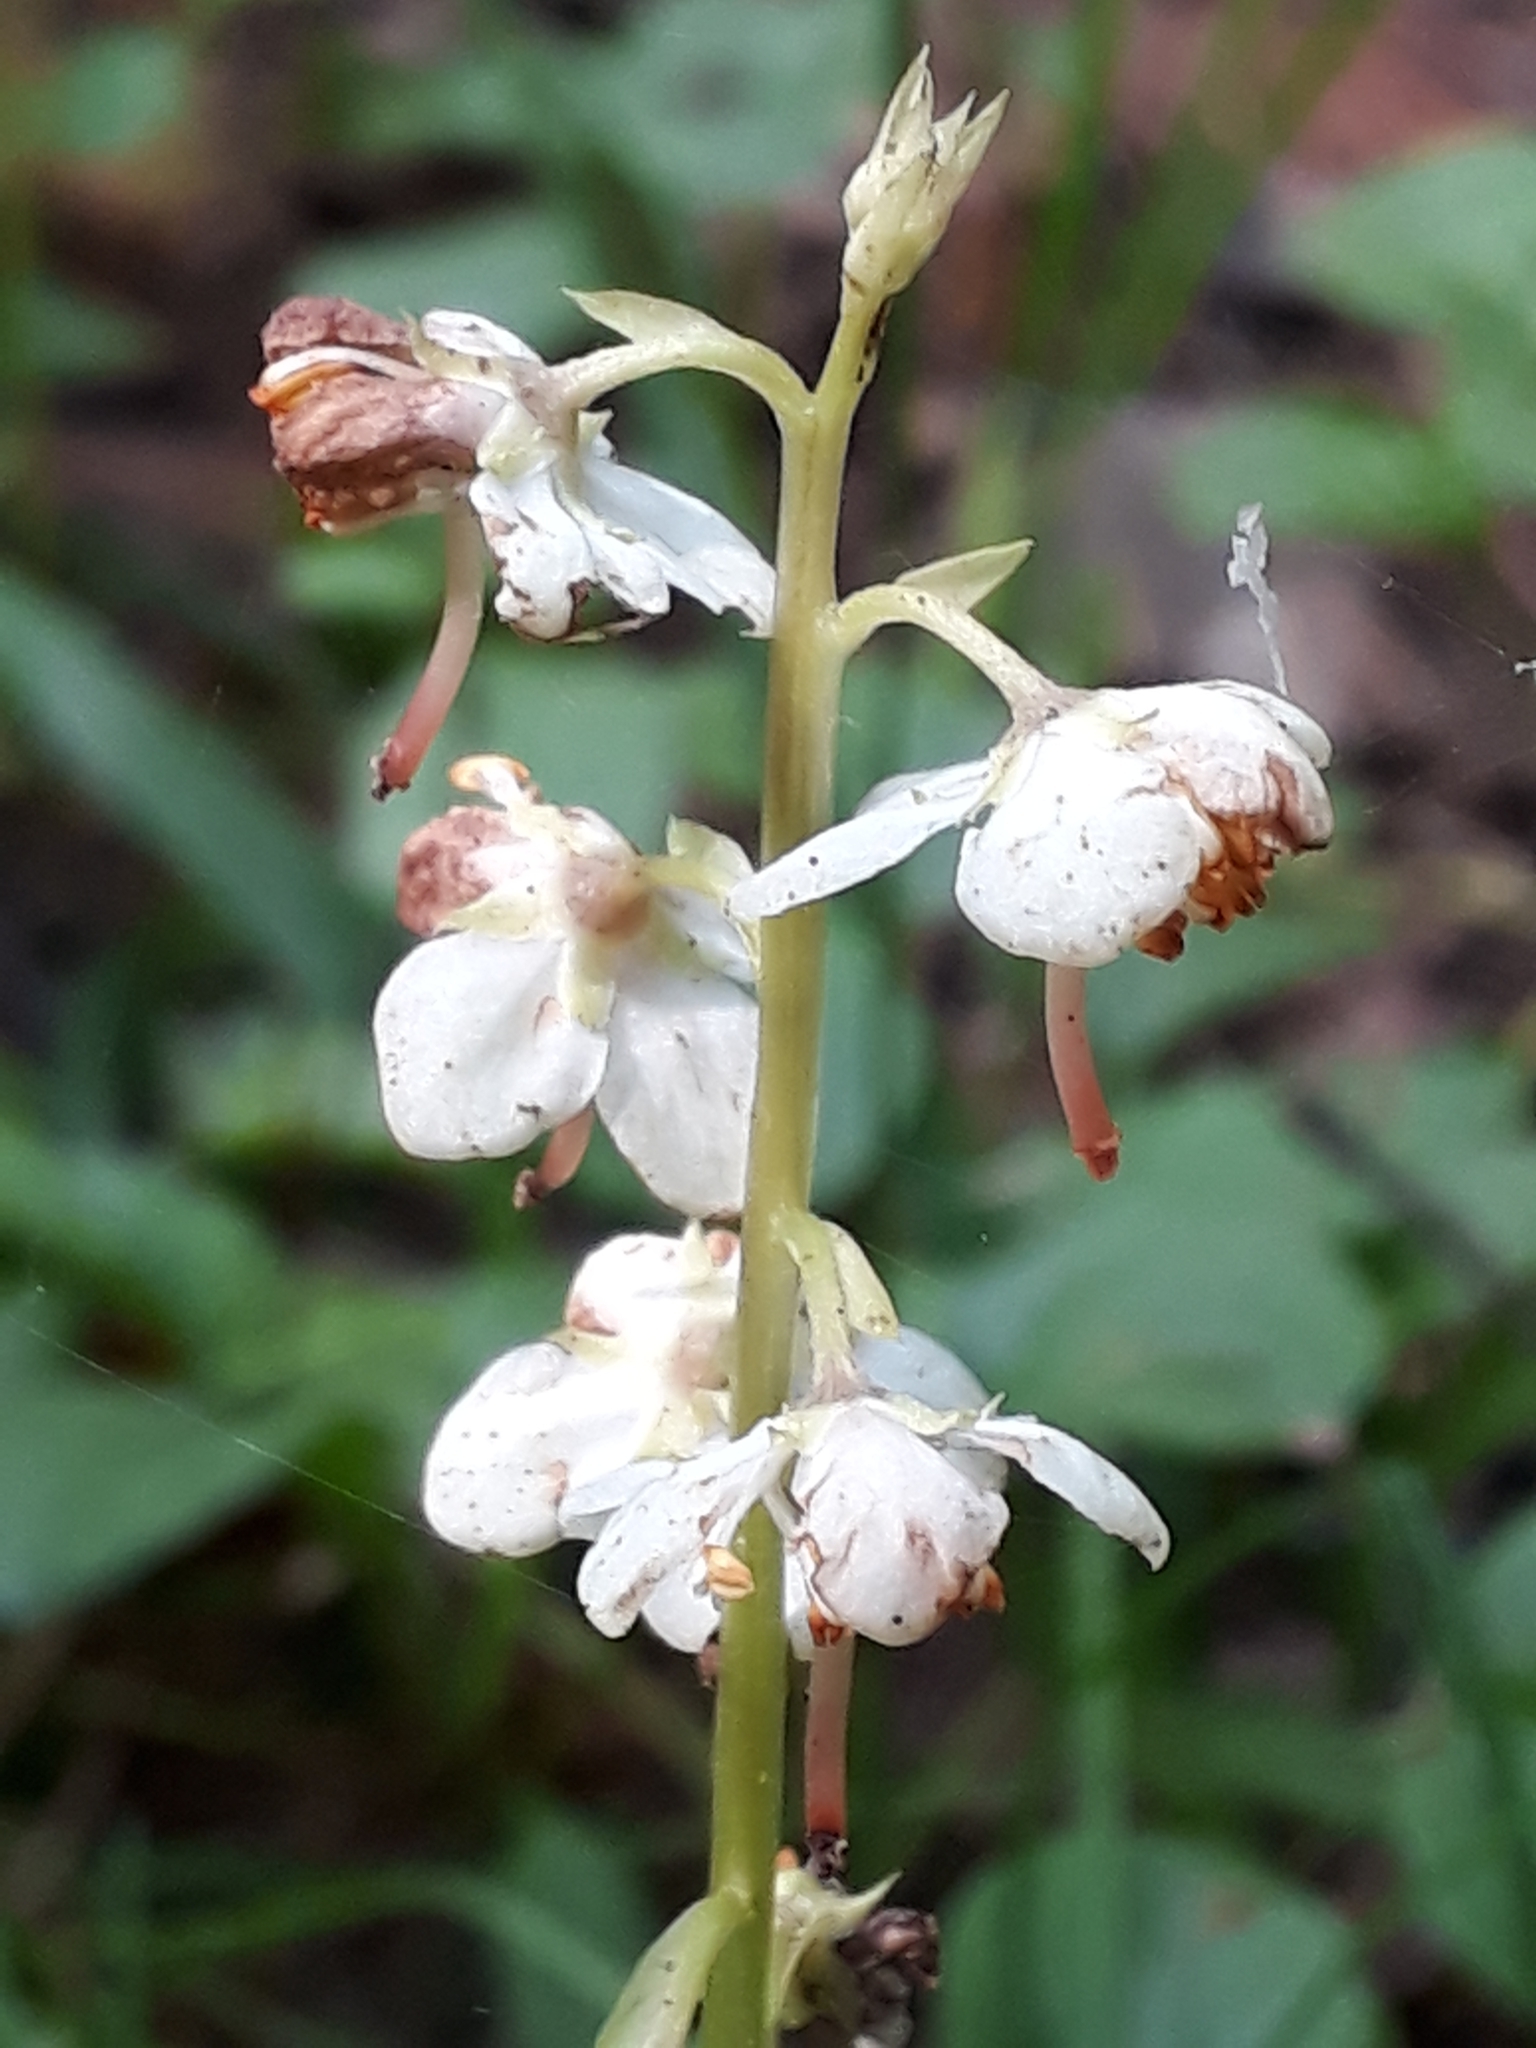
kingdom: Plantae
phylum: Tracheophyta
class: Magnoliopsida
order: Ericales
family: Ericaceae
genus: Pyrola
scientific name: Pyrola rotundifolia
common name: Round-leaved wintergreen
